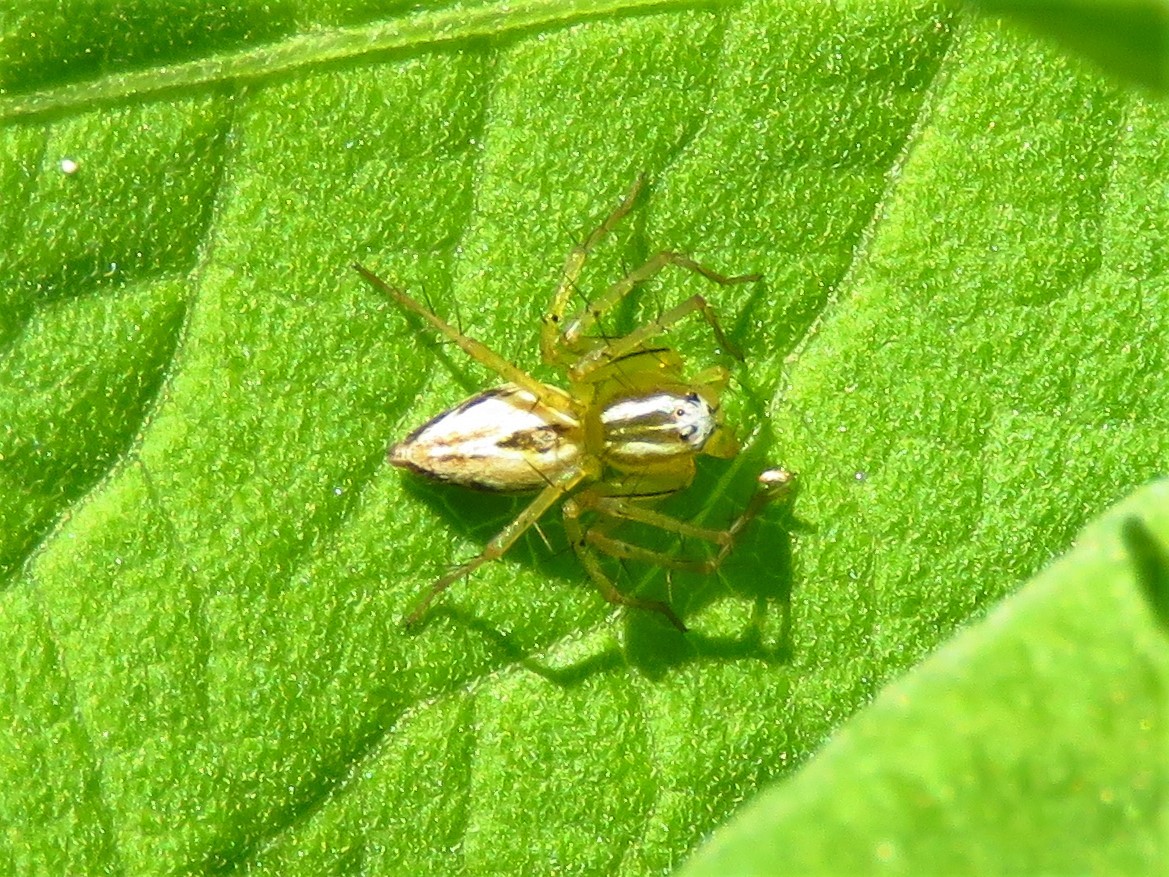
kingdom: Animalia
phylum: Arthropoda
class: Arachnida
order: Araneae
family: Oxyopidae
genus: Oxyopes
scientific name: Oxyopes salticus
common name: Lynx spiders
